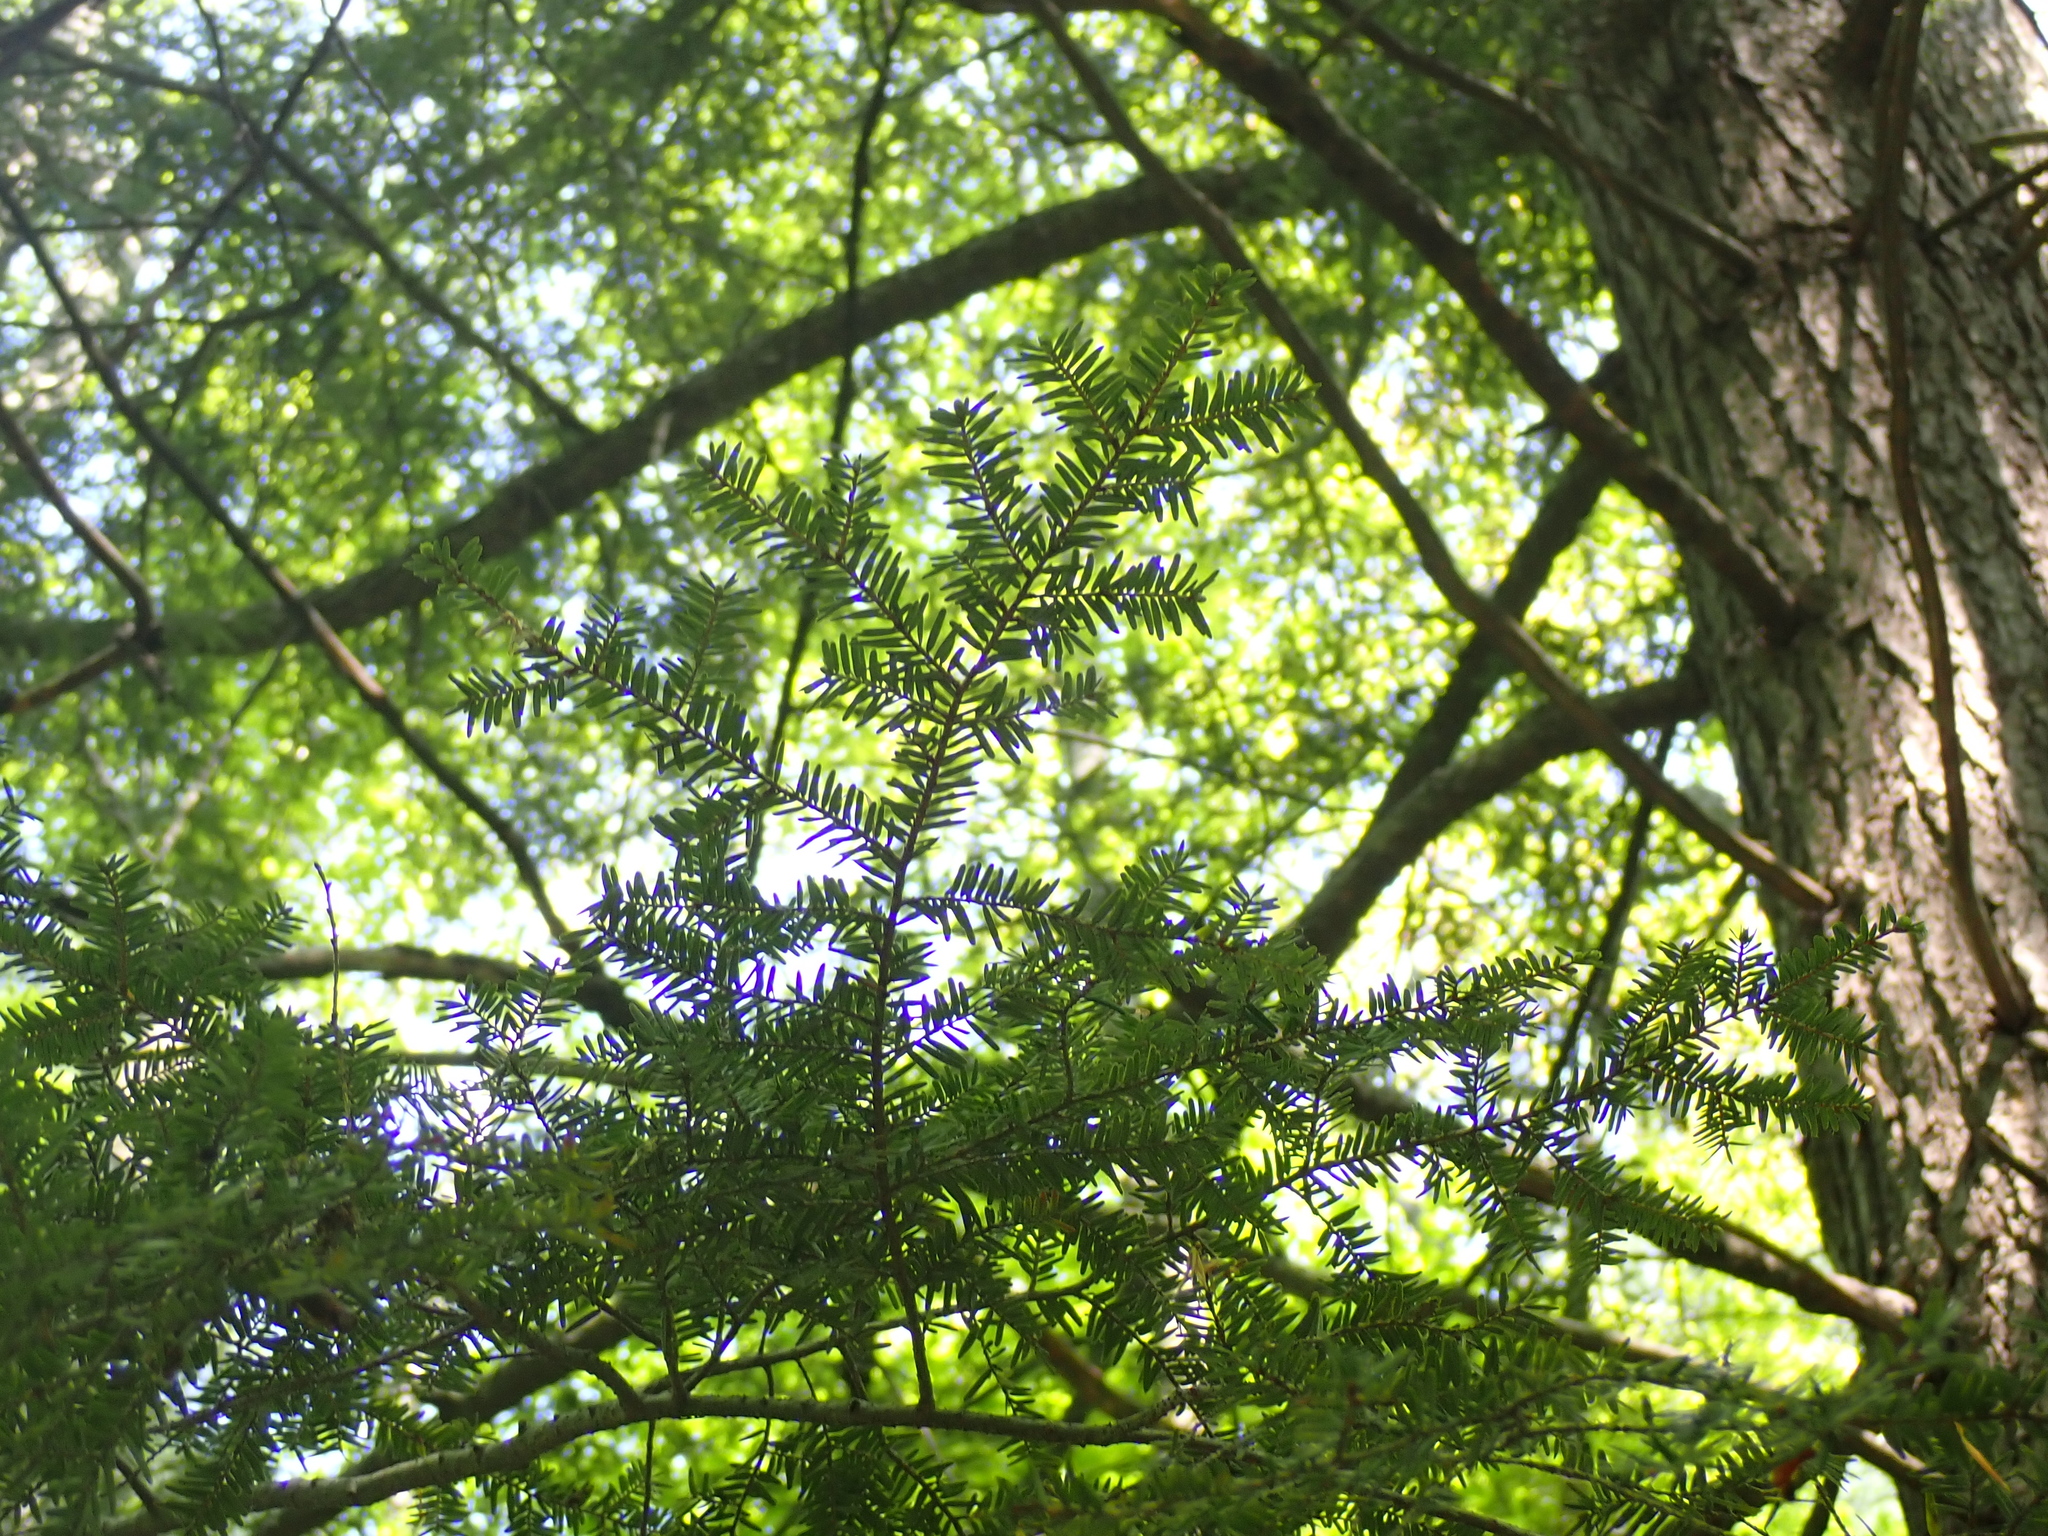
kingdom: Plantae
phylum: Tracheophyta
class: Pinopsida
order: Pinales
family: Pinaceae
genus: Tsuga
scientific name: Tsuga canadensis
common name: Eastern hemlock
